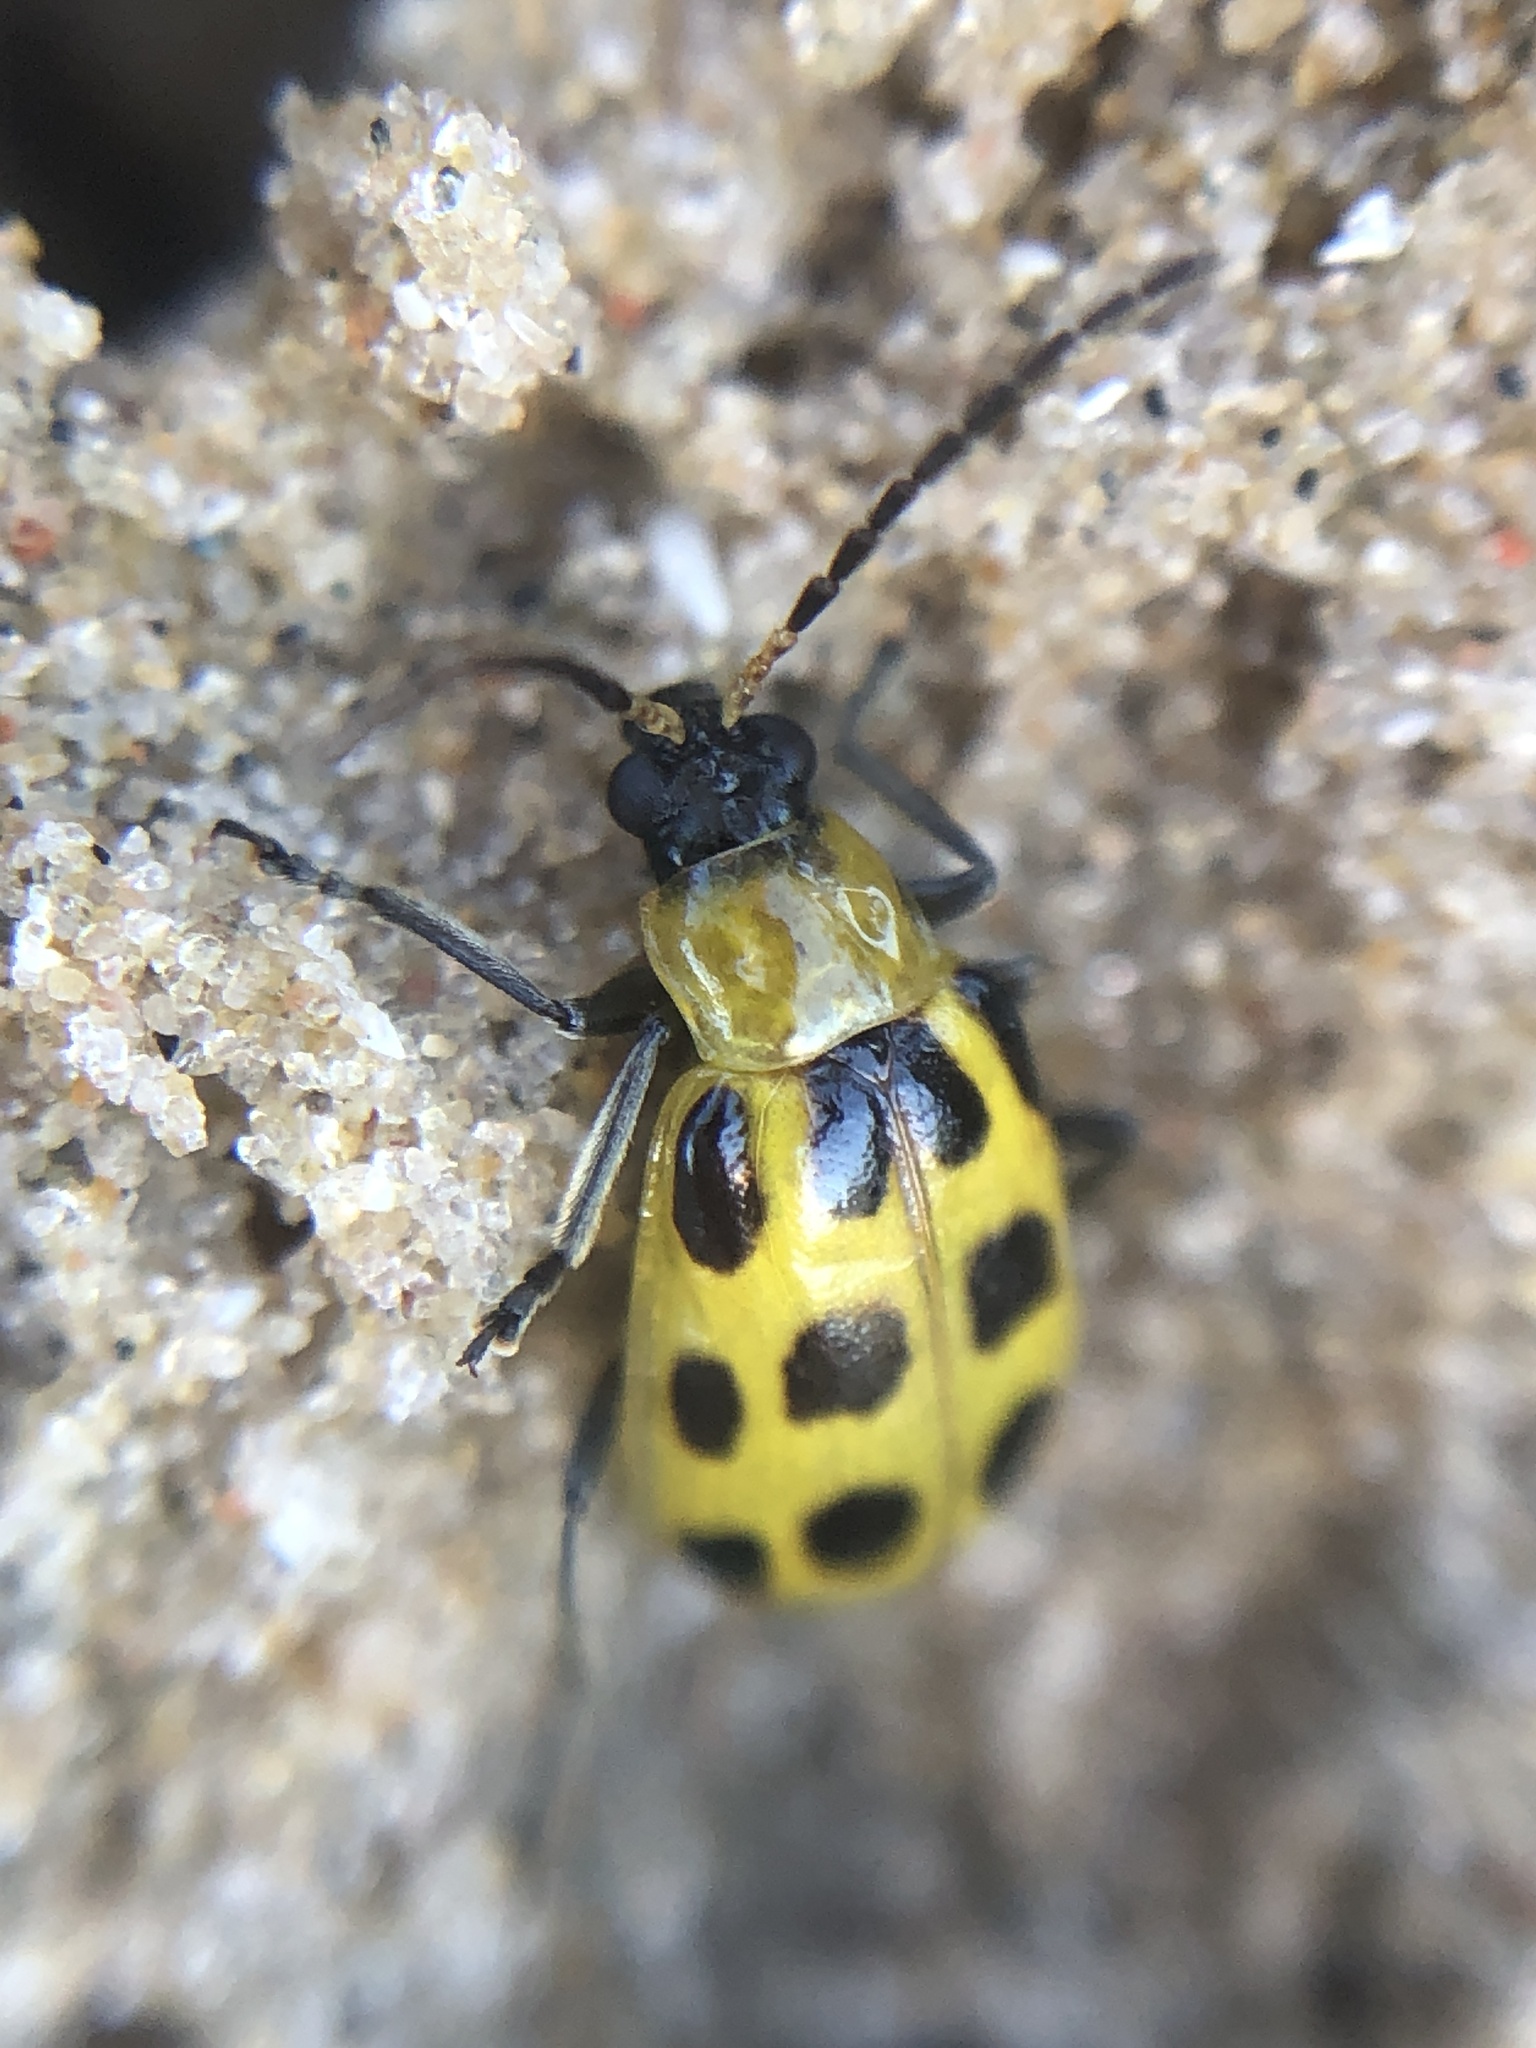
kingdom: Animalia
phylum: Arthropoda
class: Insecta
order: Coleoptera
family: Chrysomelidae
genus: Diabrotica
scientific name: Diabrotica undecimpunctata
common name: Spotted cucumber beetle
